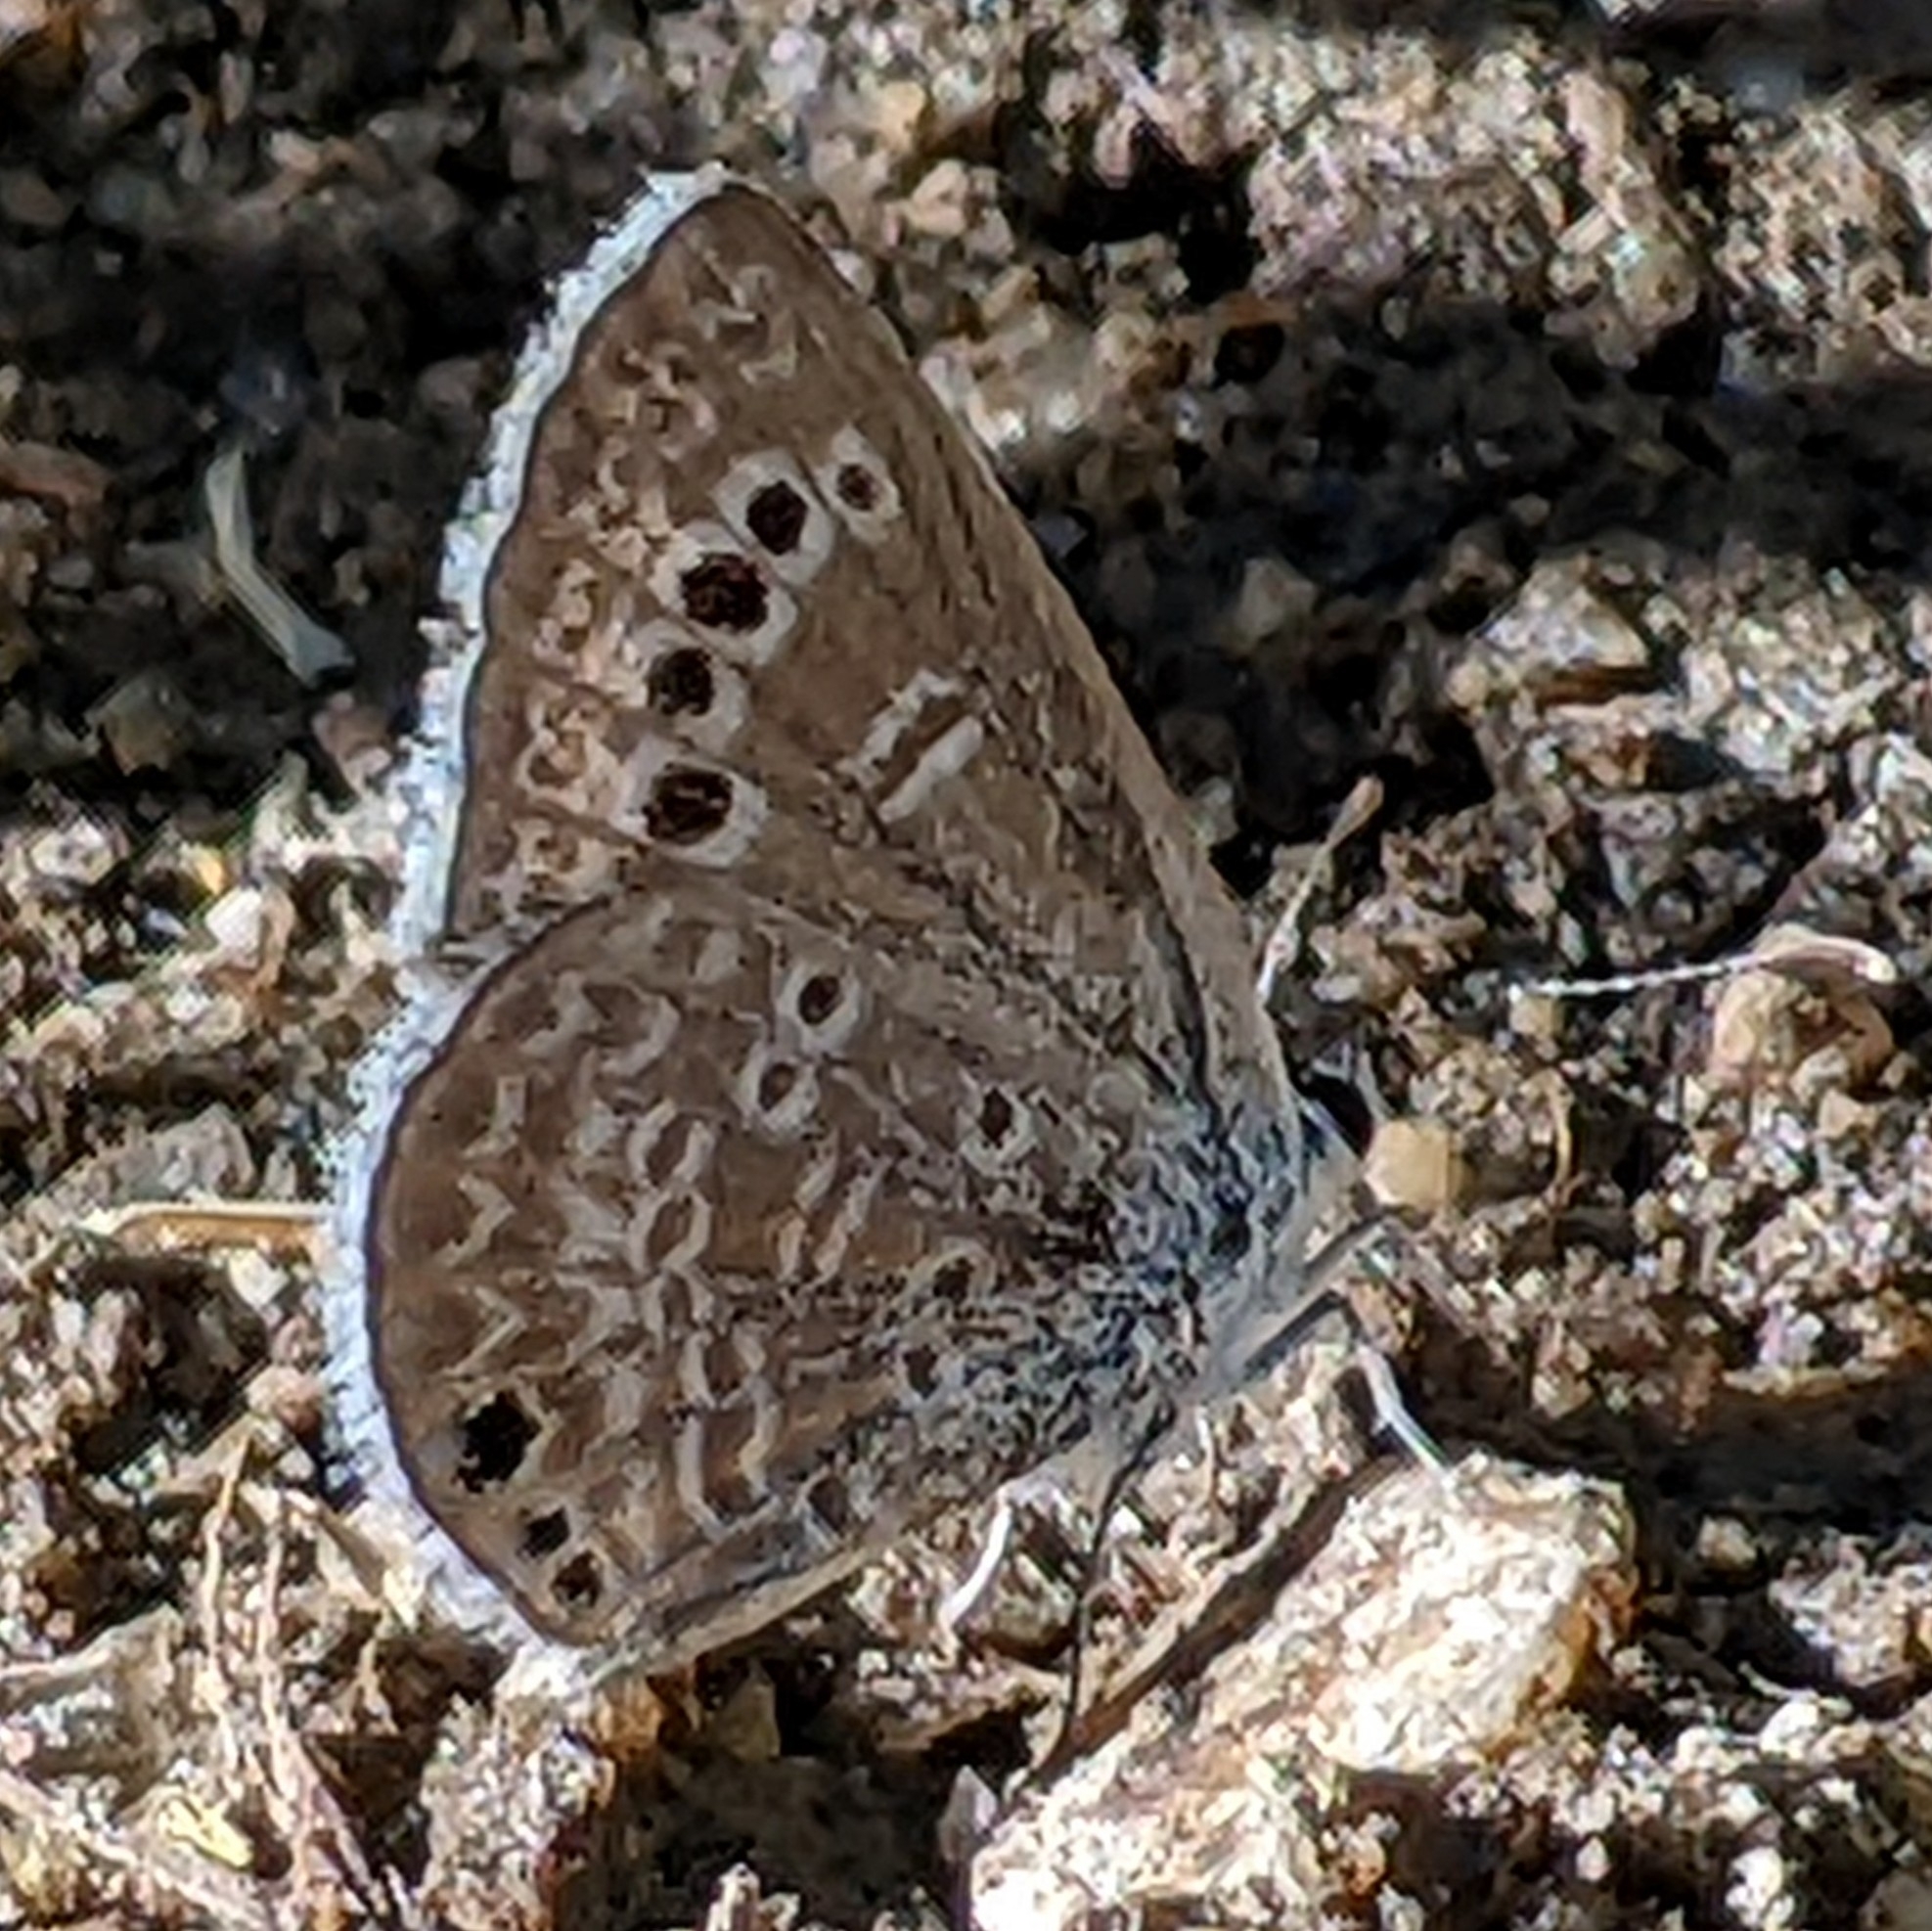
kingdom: Animalia
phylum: Arthropoda
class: Insecta
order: Lepidoptera
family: Lycaenidae
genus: Echinargus
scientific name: Echinargus isola
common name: Reakirt's blue
